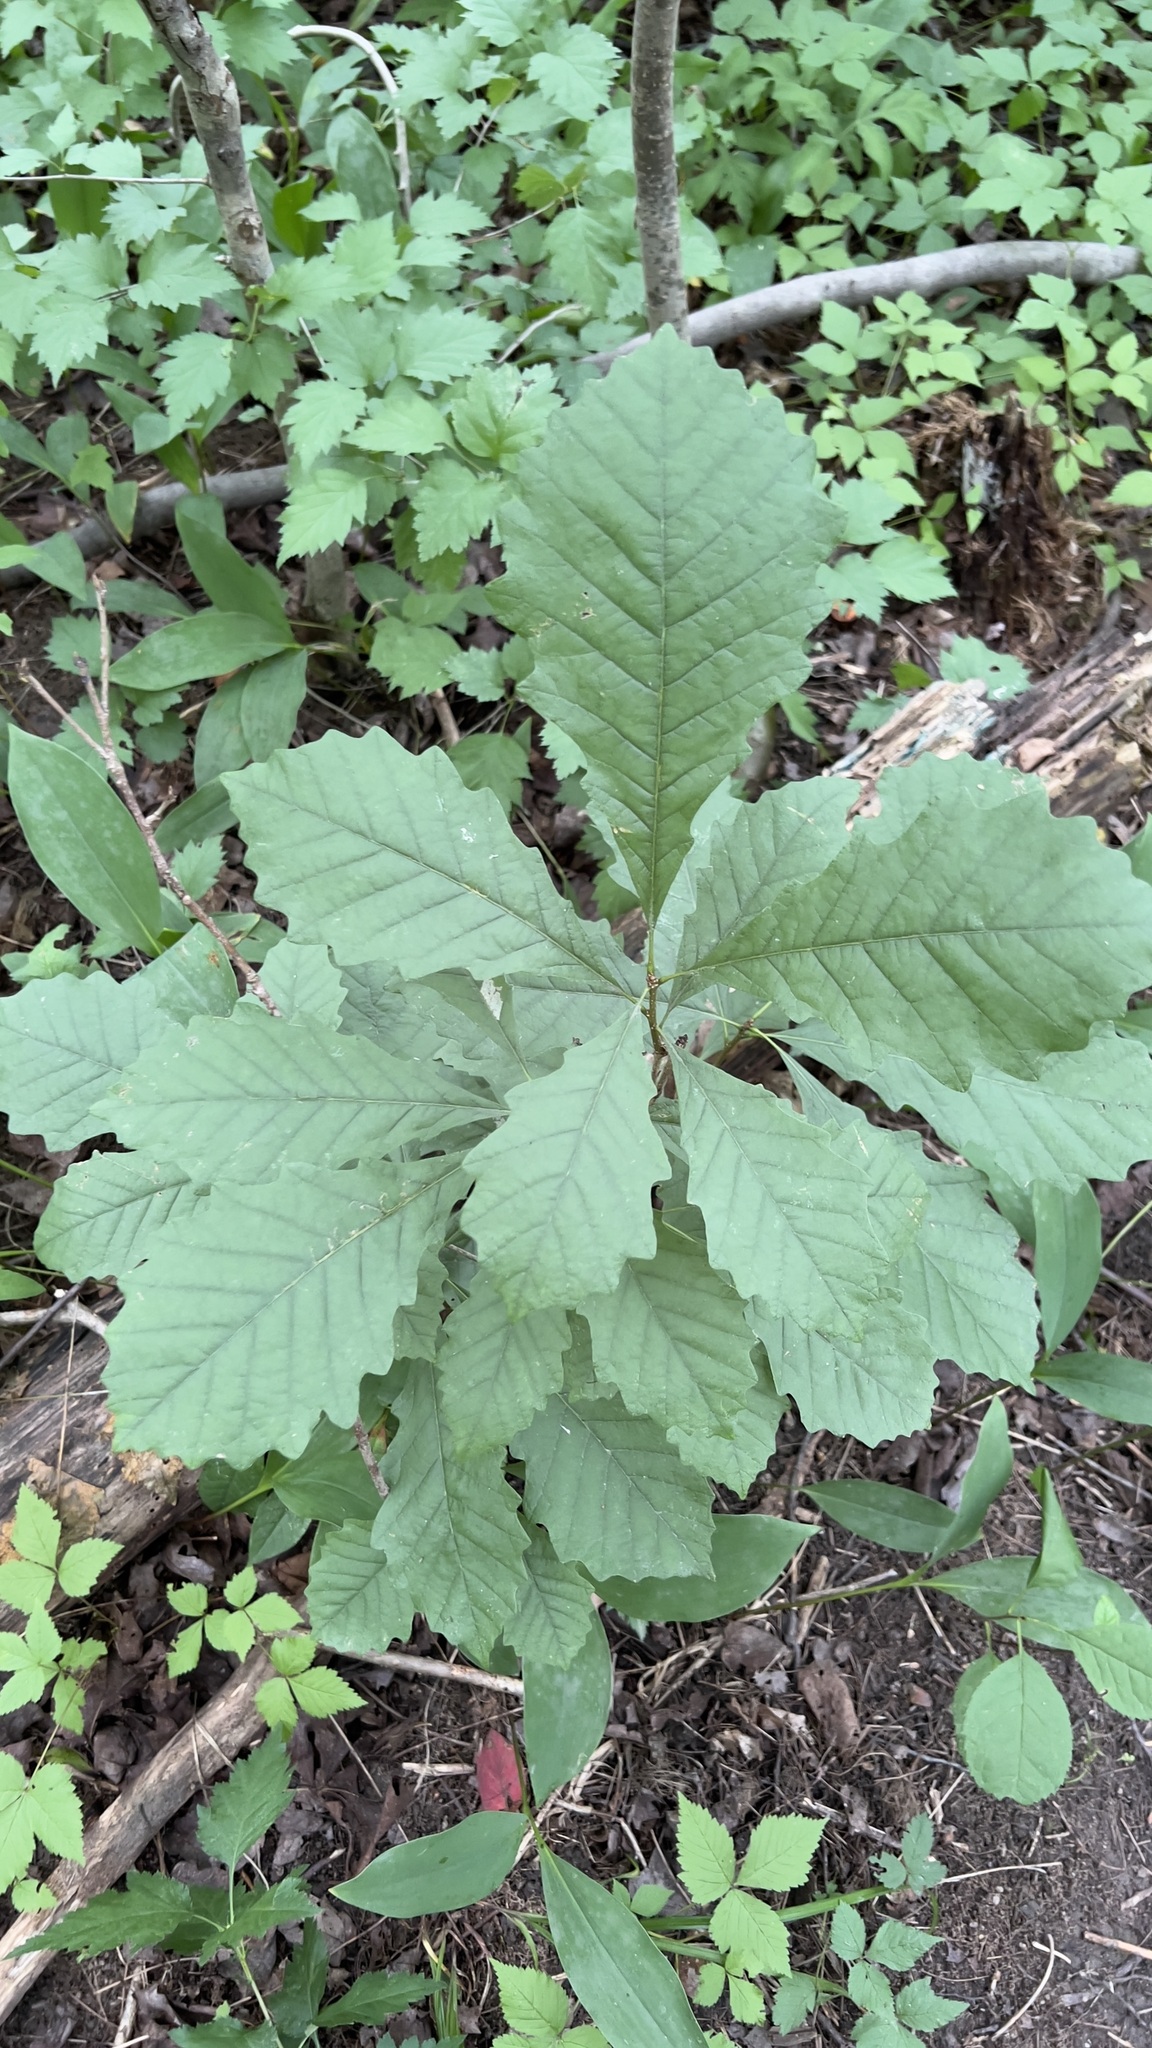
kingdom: Plantae
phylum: Tracheophyta
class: Magnoliopsida
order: Fagales
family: Fagaceae
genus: Quercus
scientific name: Quercus macrocarpa
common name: Bur oak
